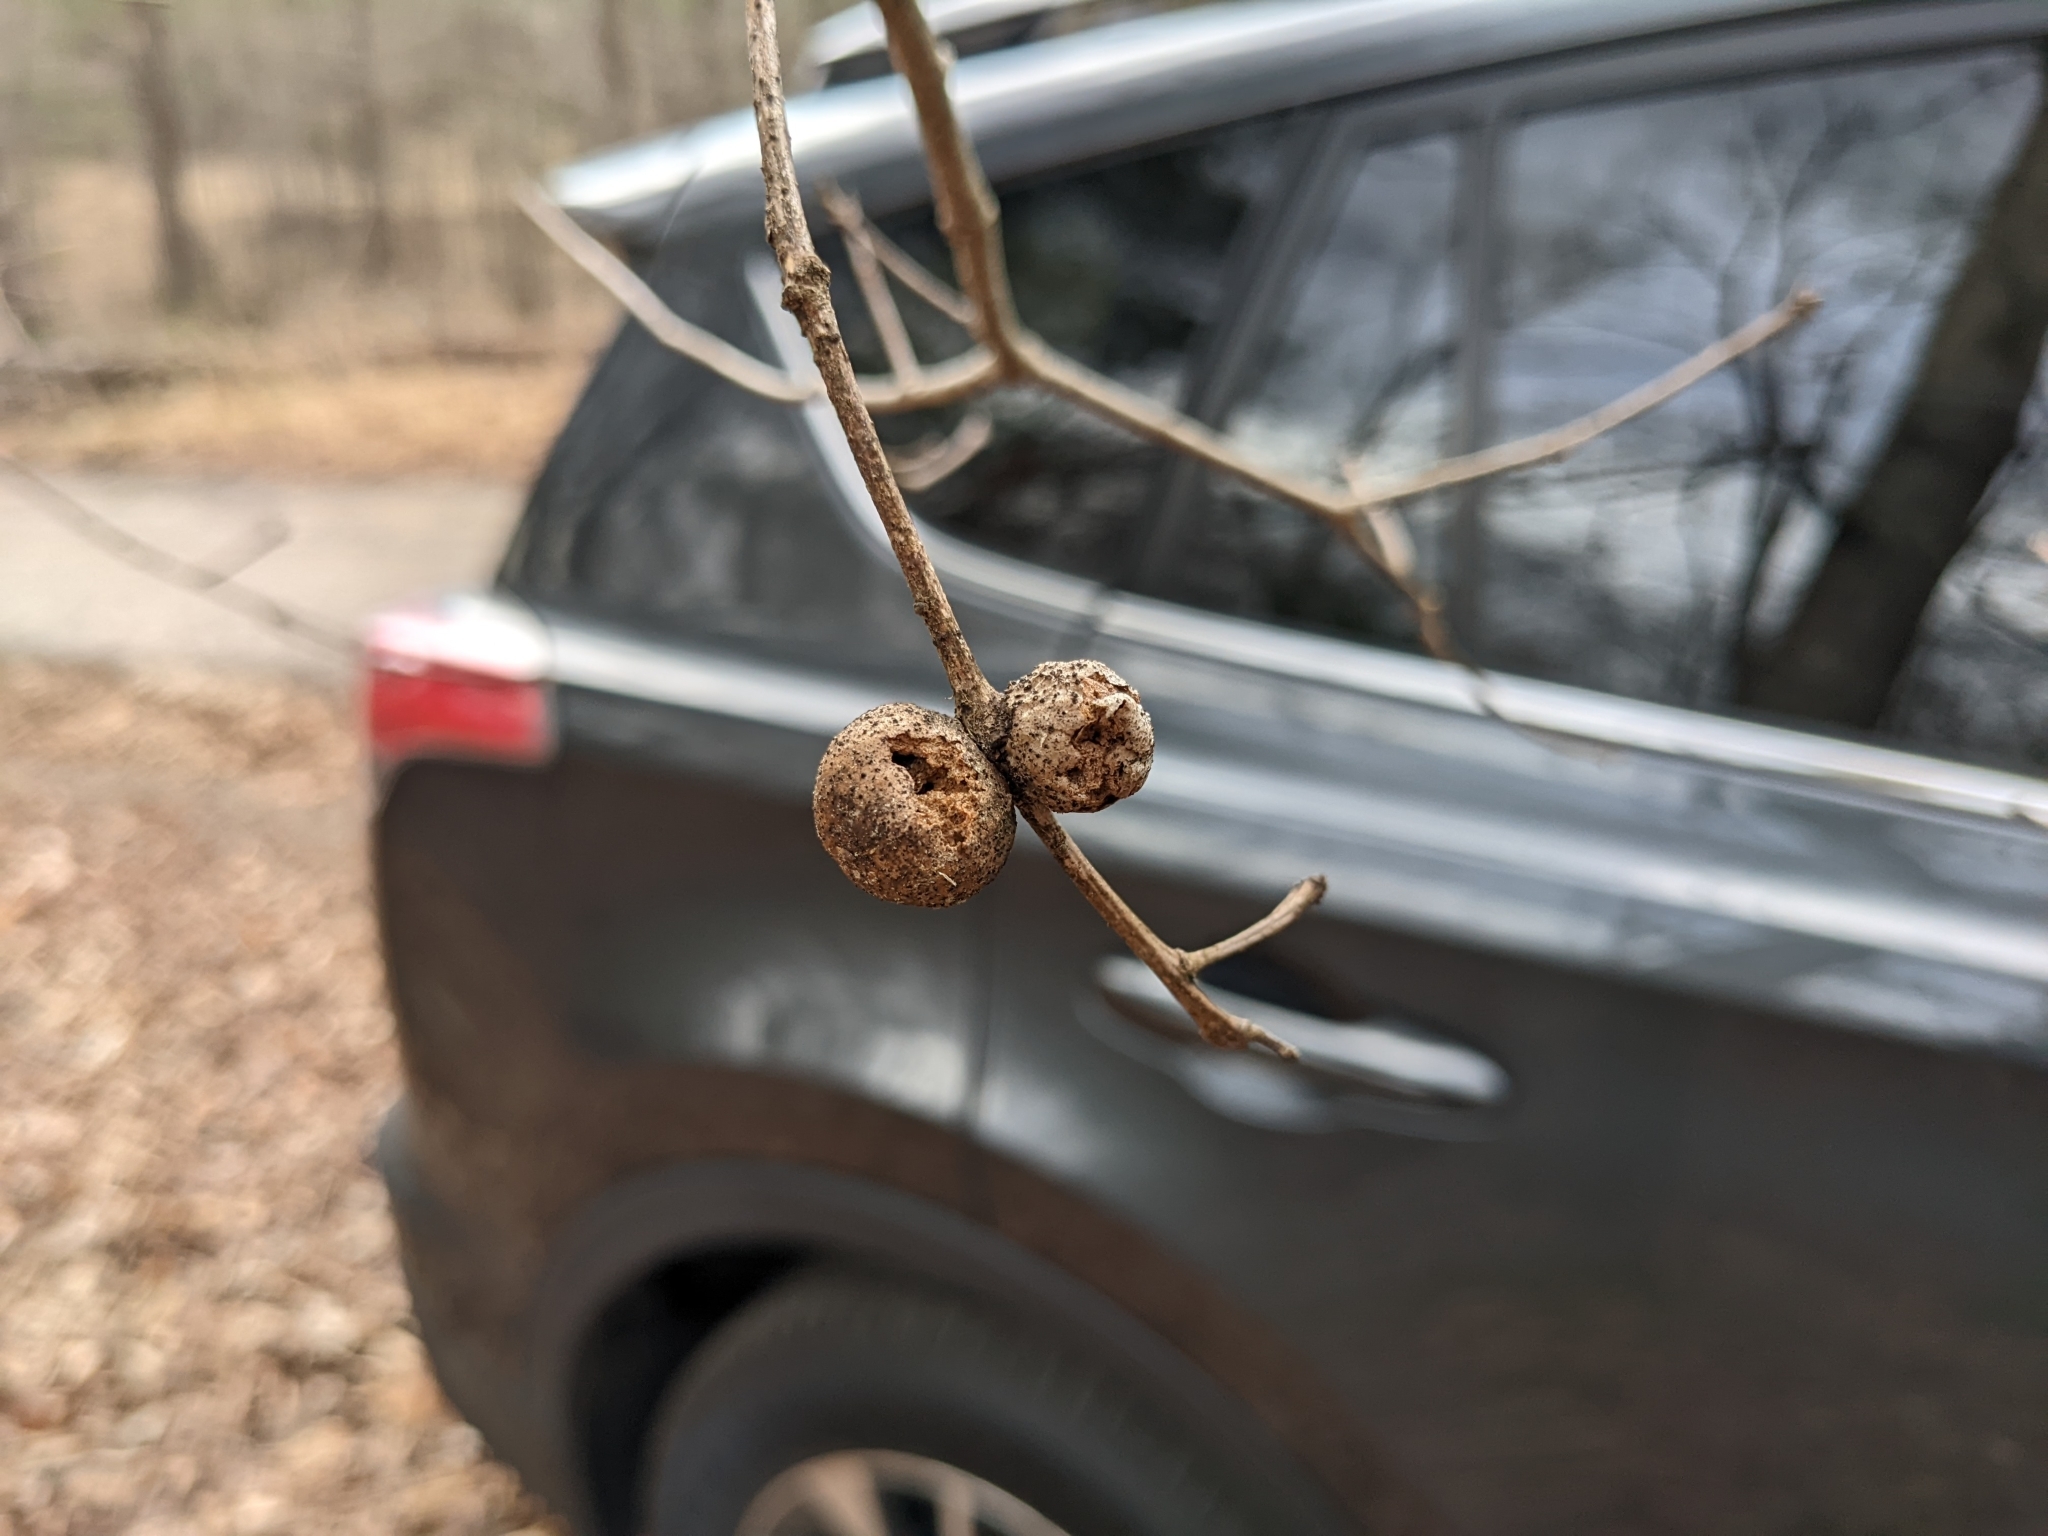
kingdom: Animalia
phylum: Arthropoda
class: Insecta
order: Hymenoptera
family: Cynipidae
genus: Disholcaspis
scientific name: Disholcaspis quercusglobulus
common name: Round bullet gall wasp
